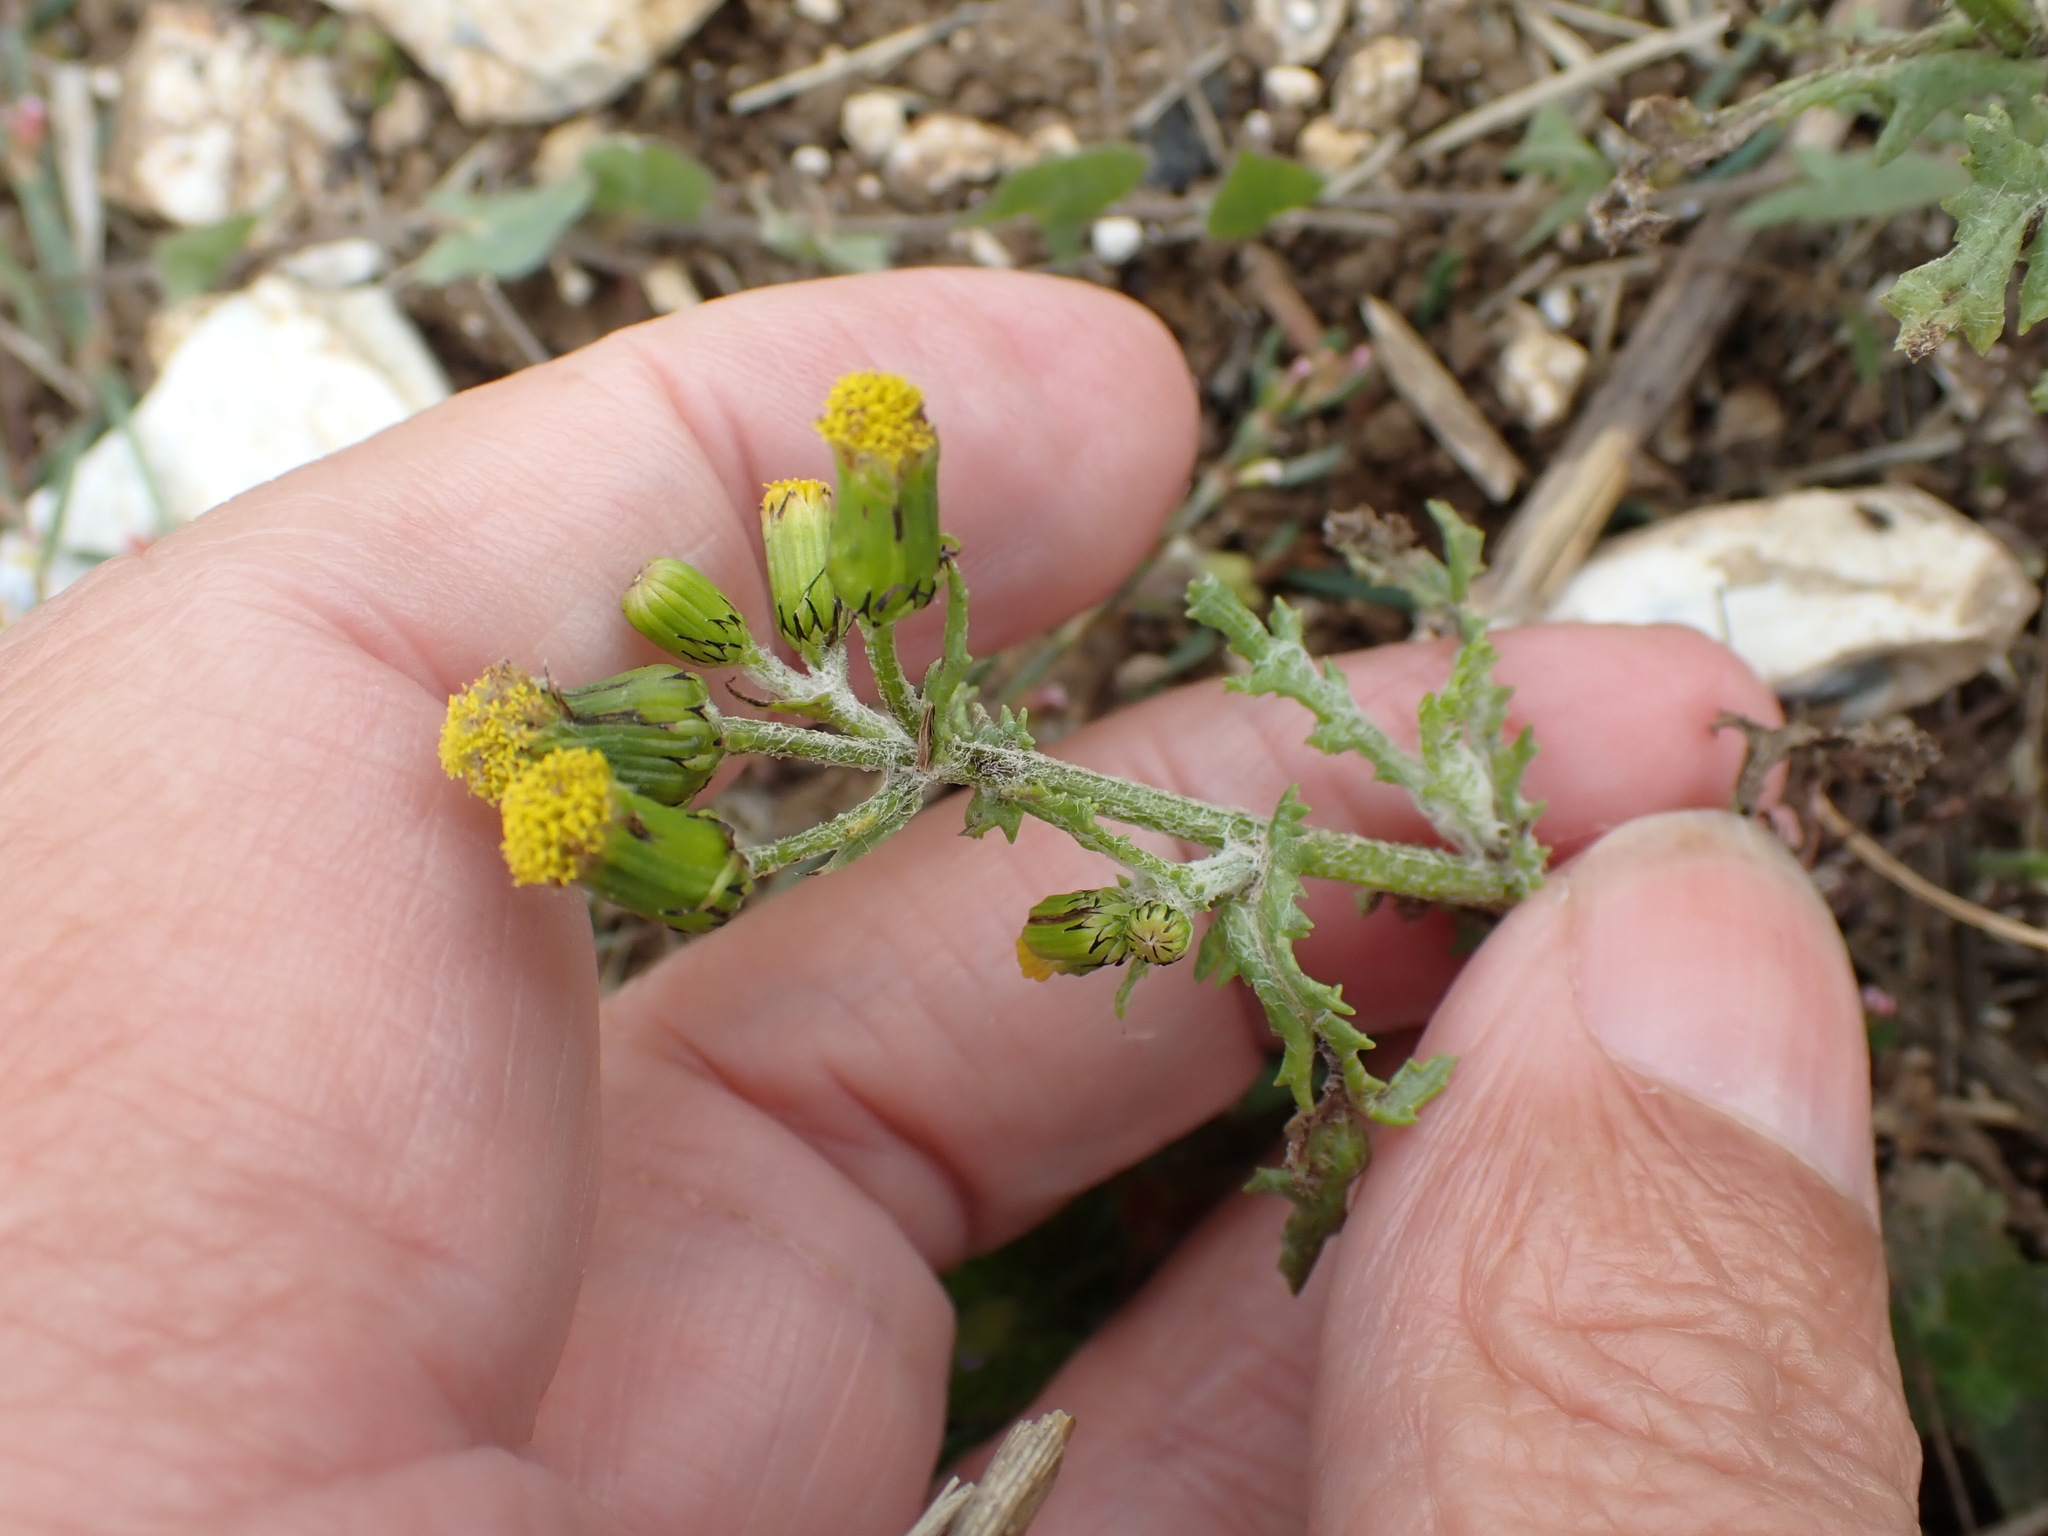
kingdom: Plantae
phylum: Tracheophyta
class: Magnoliopsida
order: Asterales
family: Asteraceae
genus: Senecio
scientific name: Senecio vulgaris
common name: Old-man-in-the-spring
